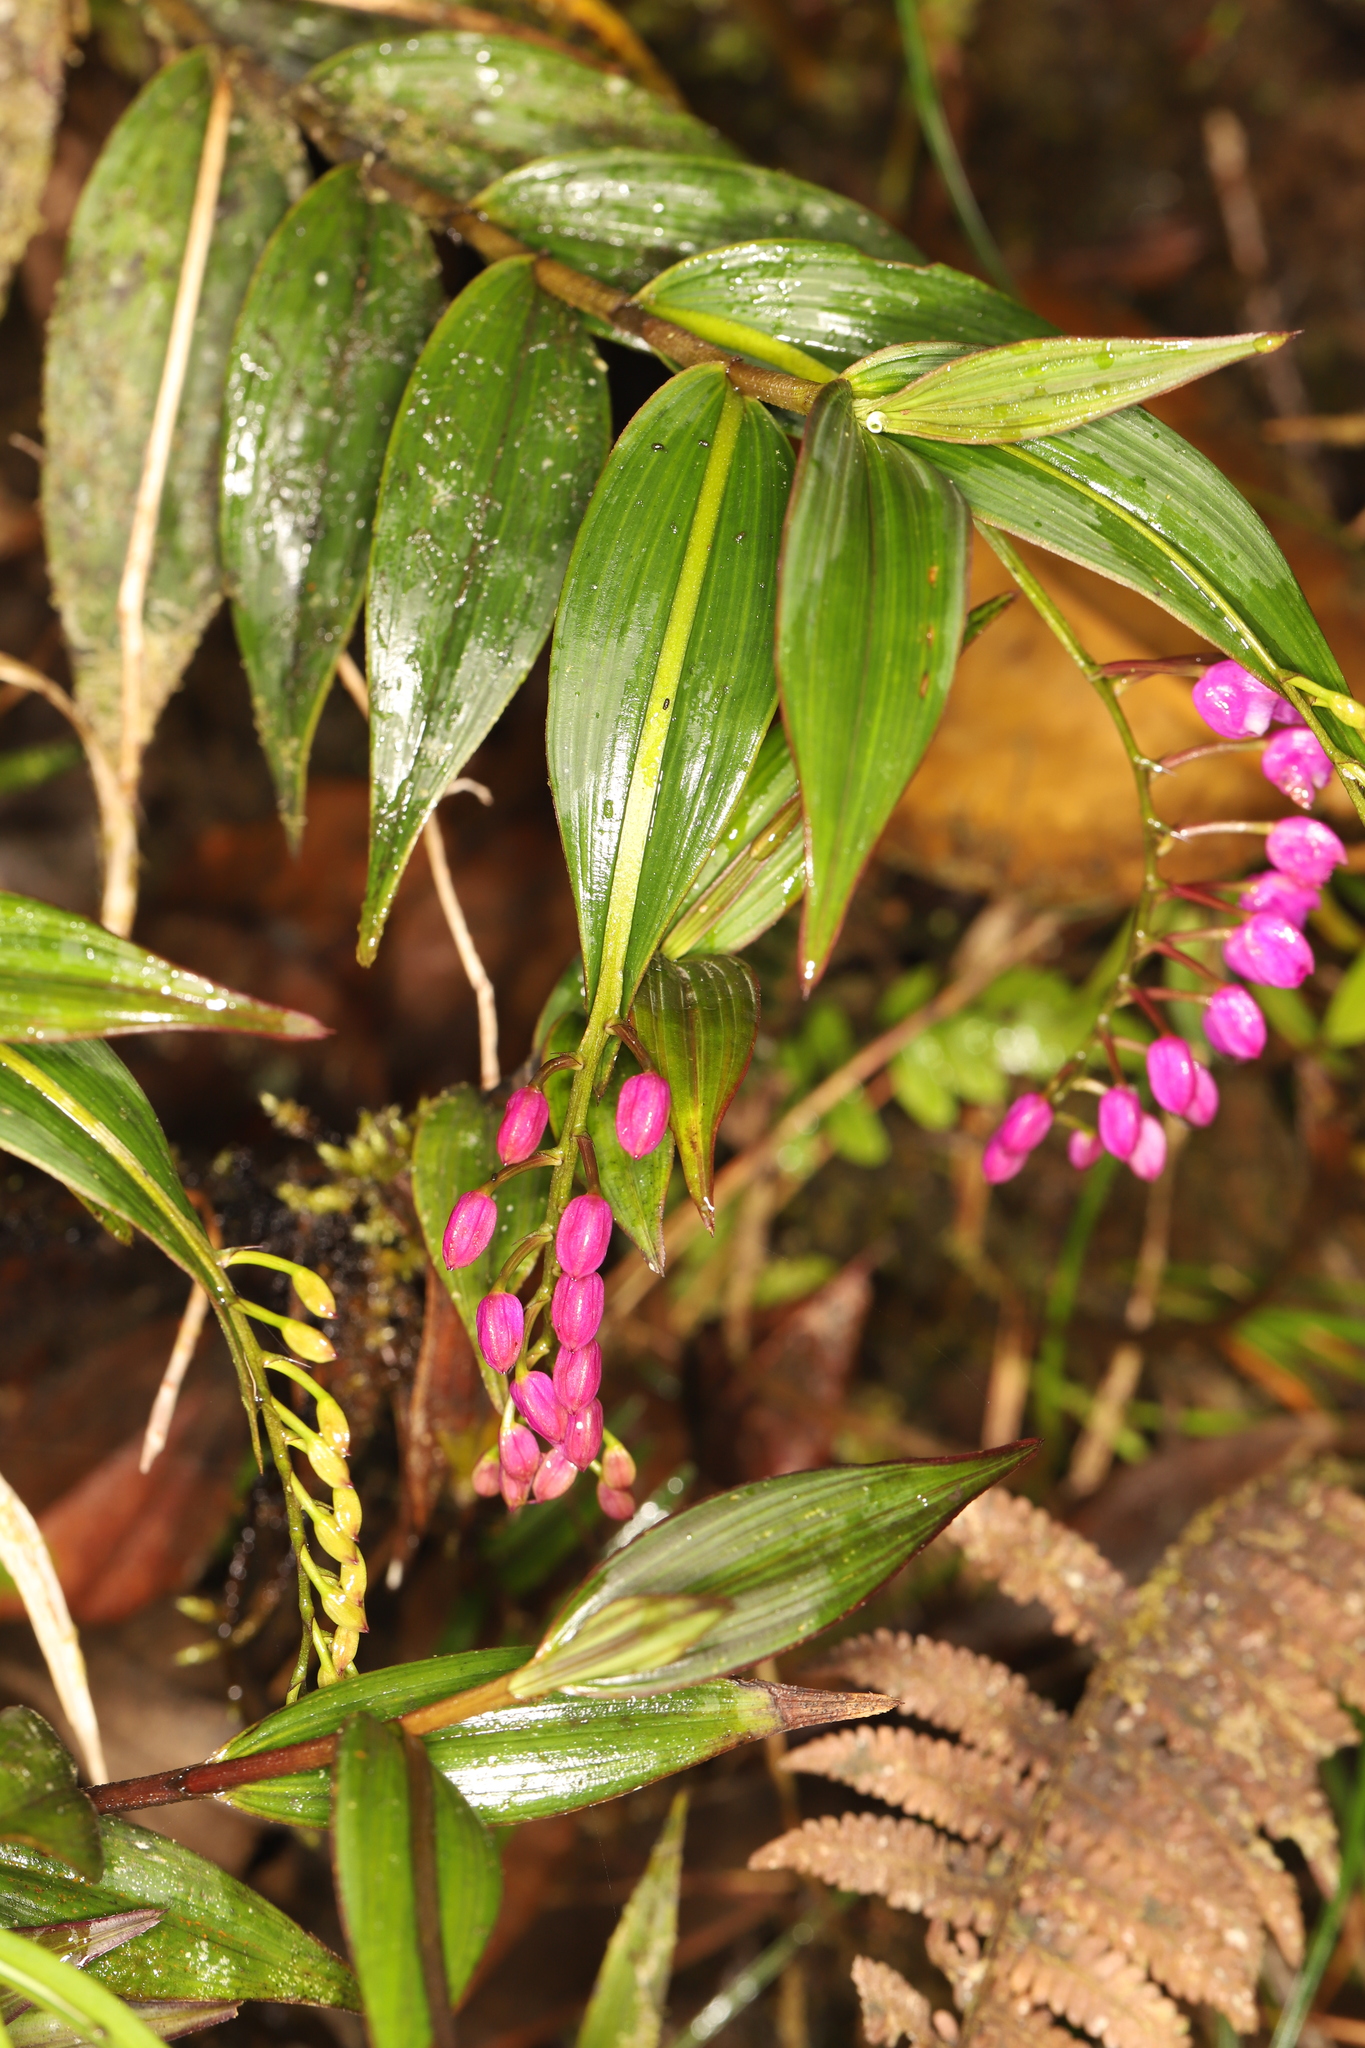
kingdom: Plantae
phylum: Tracheophyta
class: Liliopsida
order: Asparagales
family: Orchidaceae
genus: Sertifera
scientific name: Sertifera purpurea
